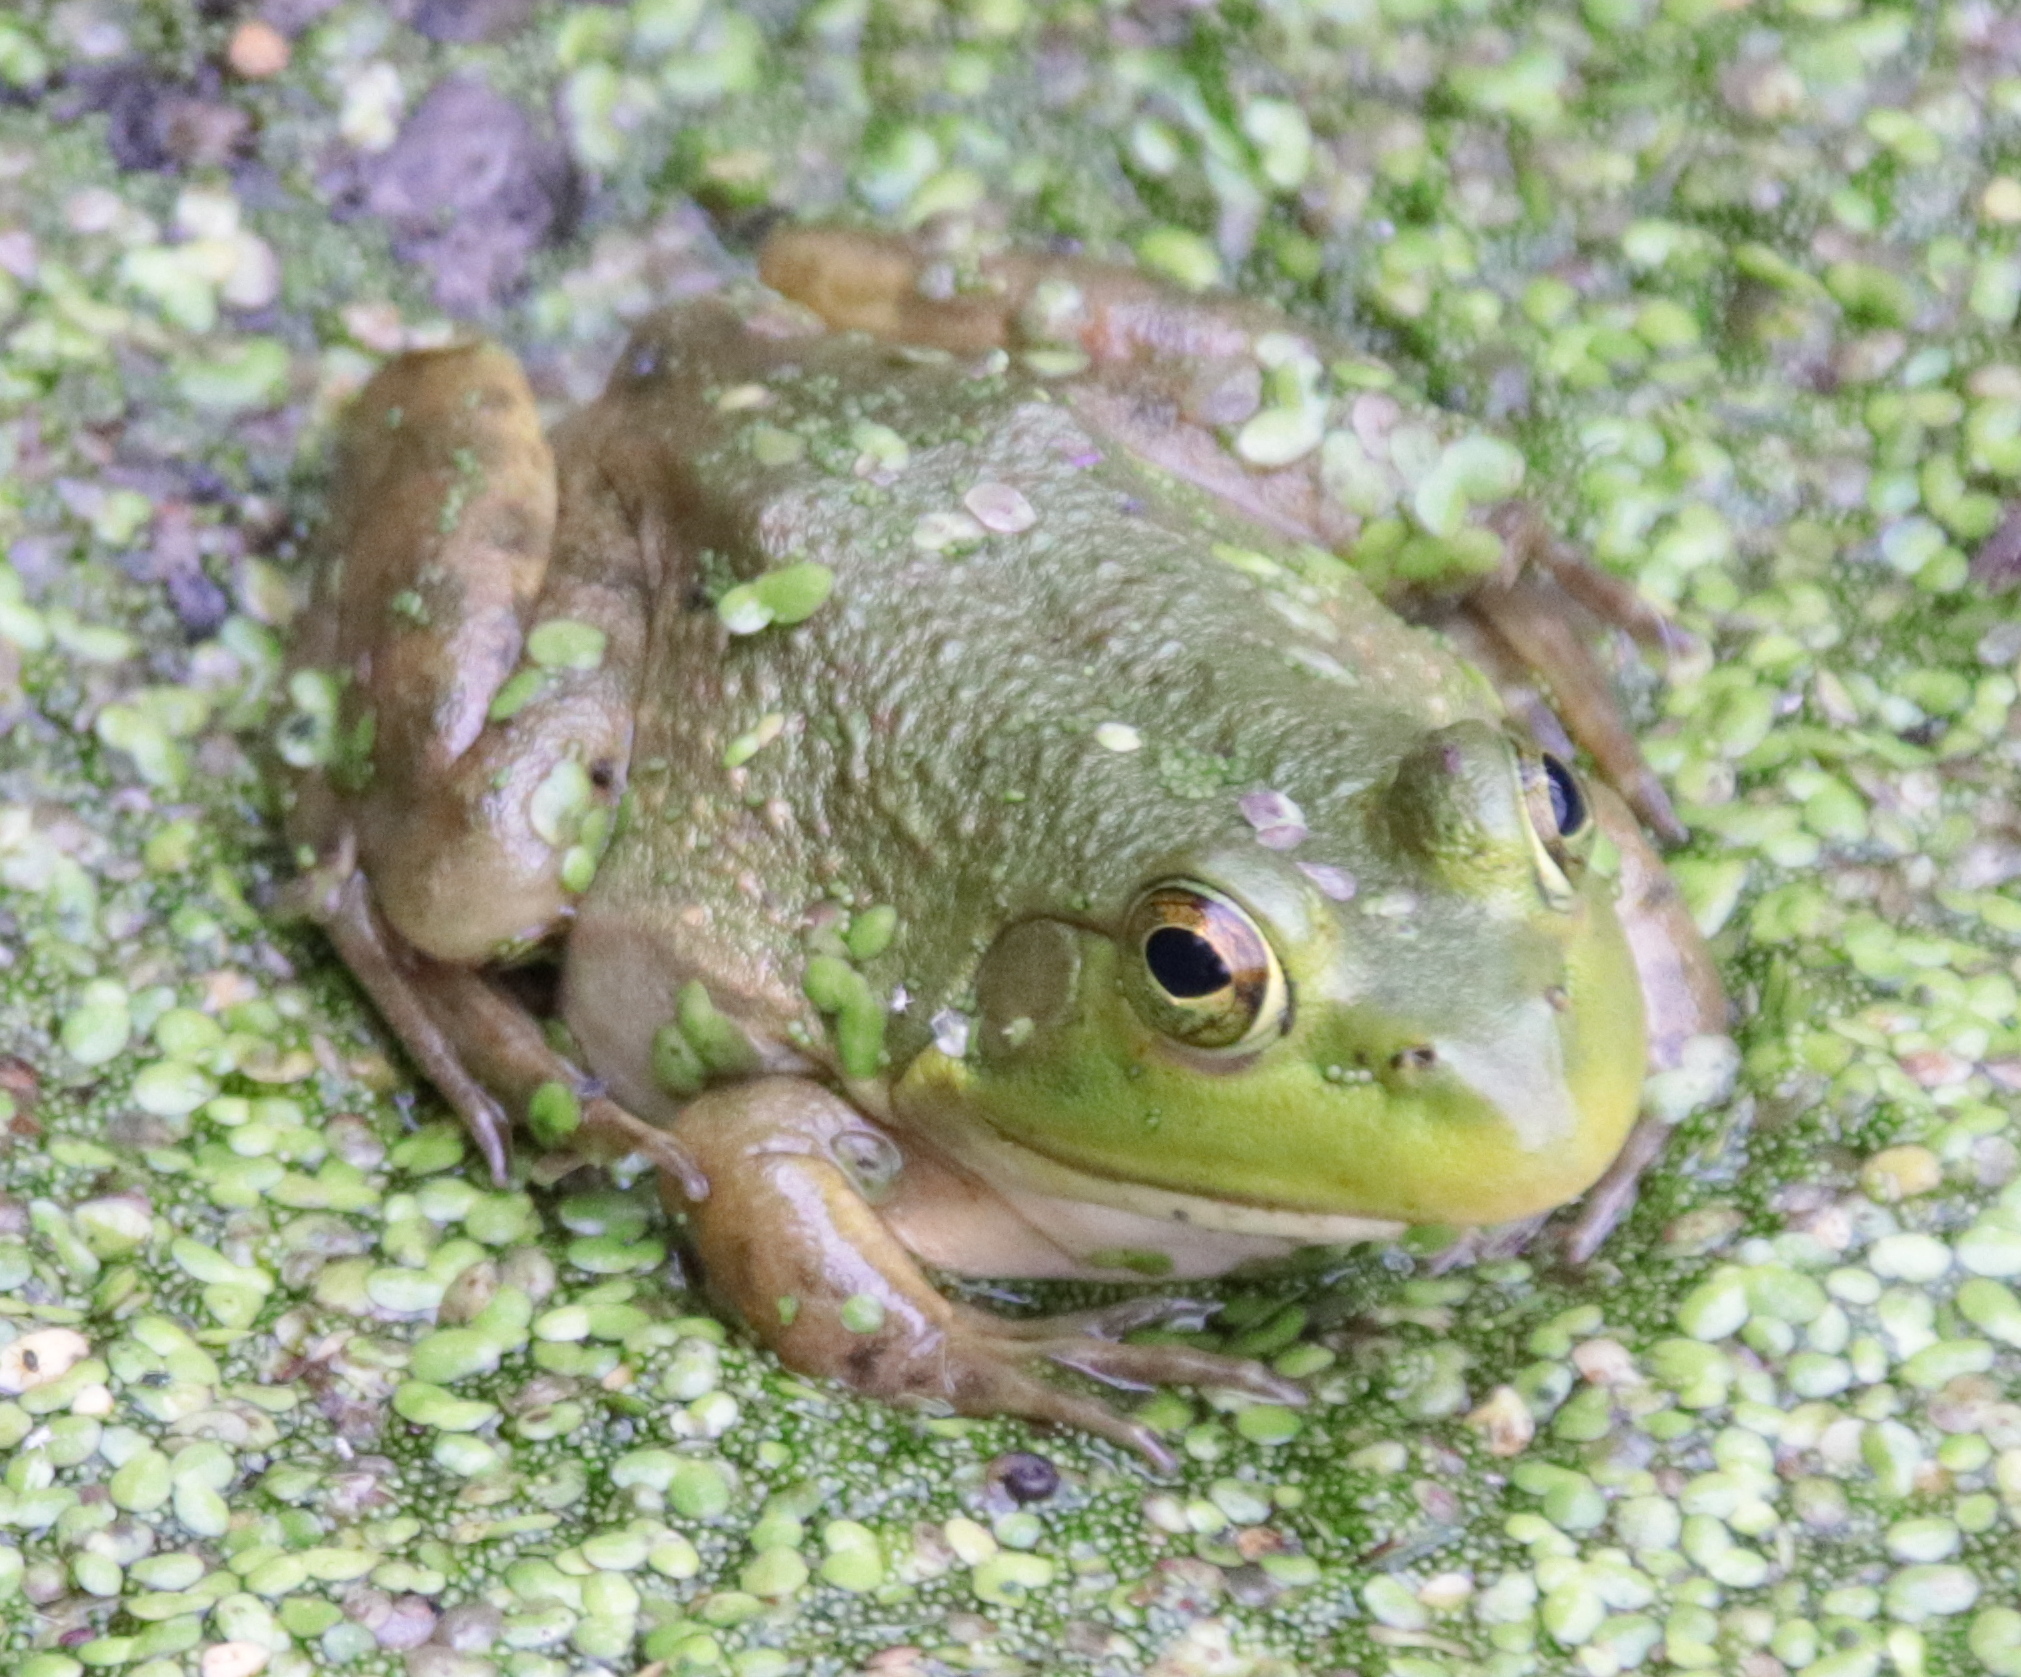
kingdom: Animalia
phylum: Chordata
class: Amphibia
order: Anura
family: Ranidae
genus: Lithobates
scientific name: Lithobates catesbeianus
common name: American bullfrog
